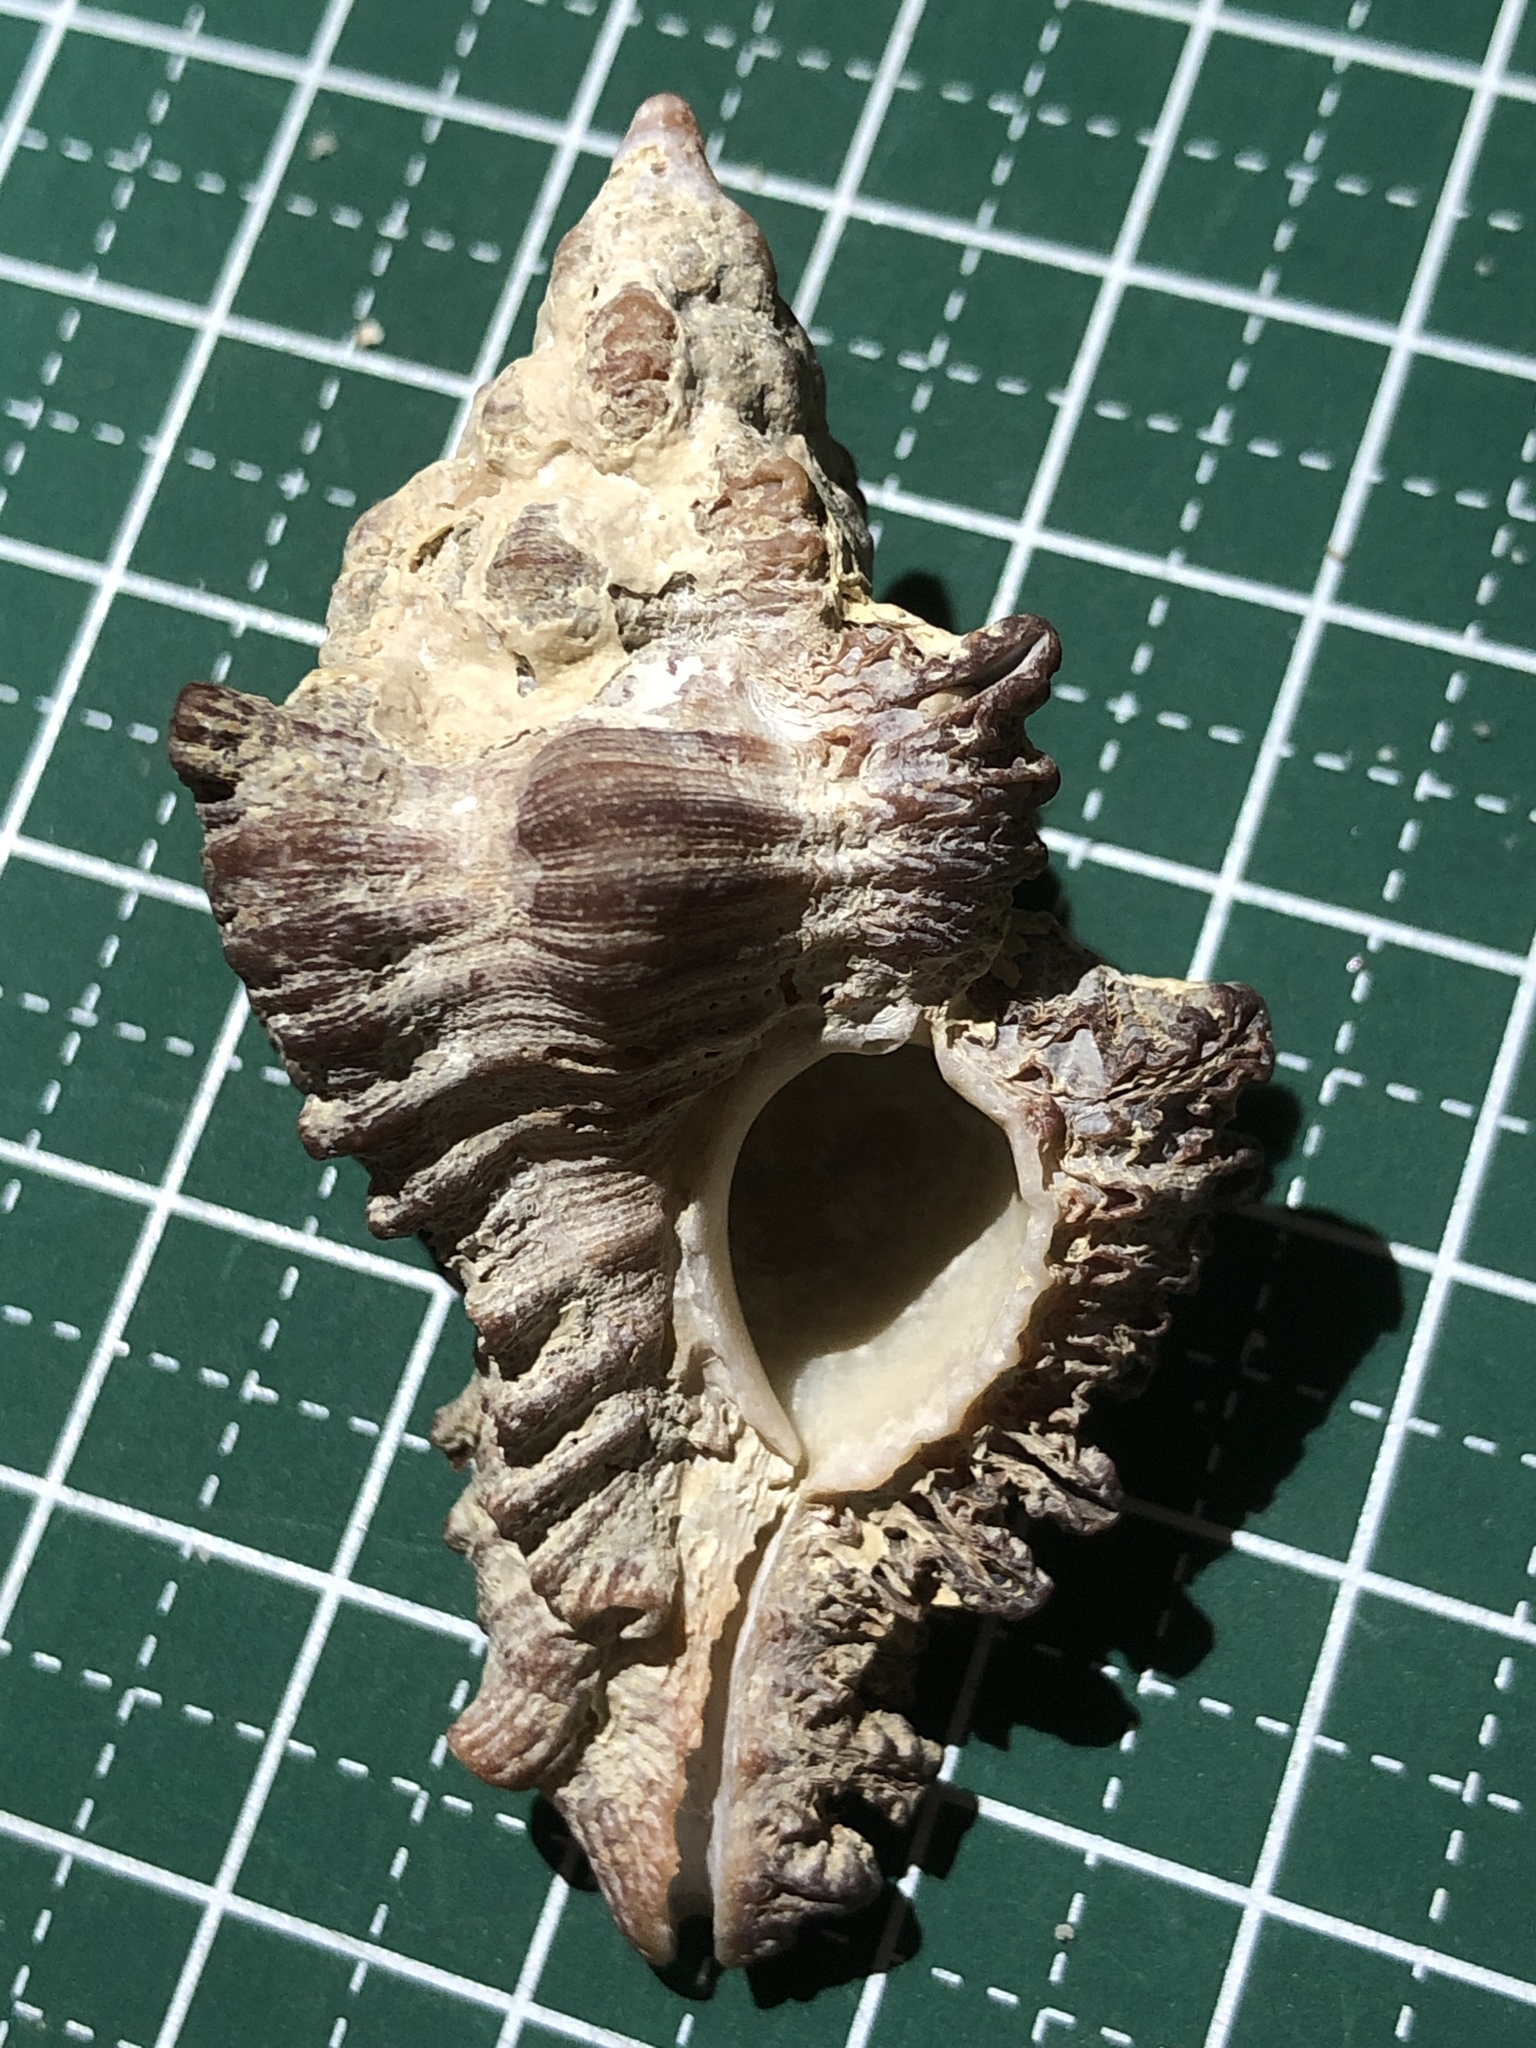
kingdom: Animalia
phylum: Mollusca
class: Gastropoda
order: Neogastropoda
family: Muricidae
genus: Chicoreus
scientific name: Chicoreus brunneus
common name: Adusta murex
